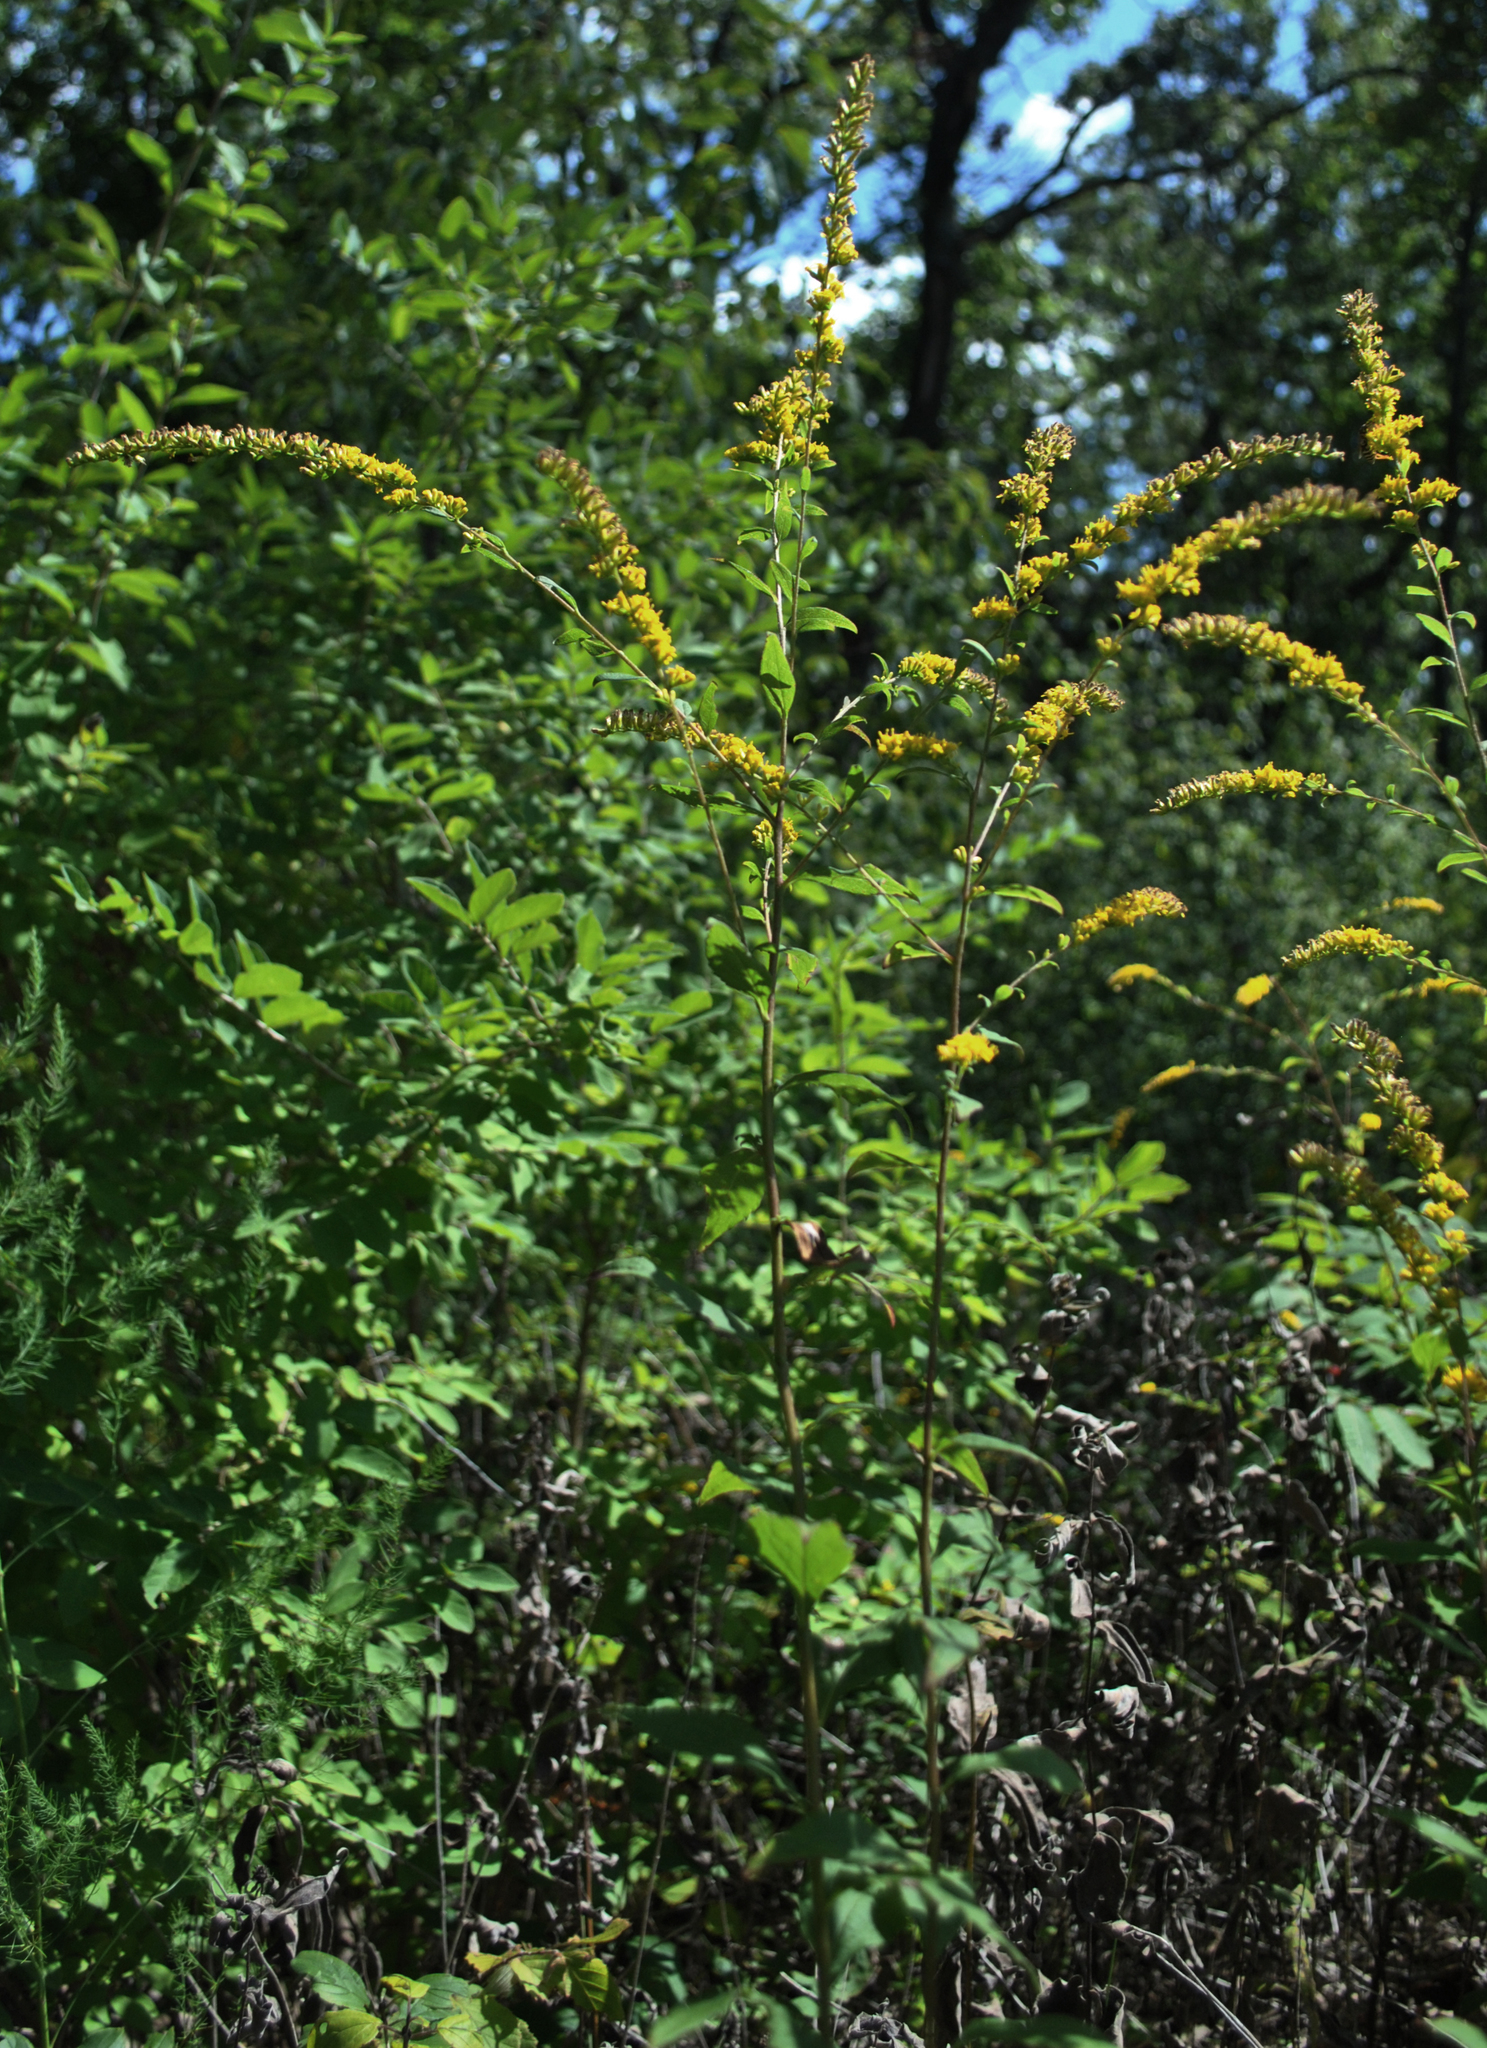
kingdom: Plantae
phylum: Tracheophyta
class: Magnoliopsida
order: Asterales
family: Asteraceae
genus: Solidago
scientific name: Solidago ulmifolia
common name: Elm-leaf goldenrod
